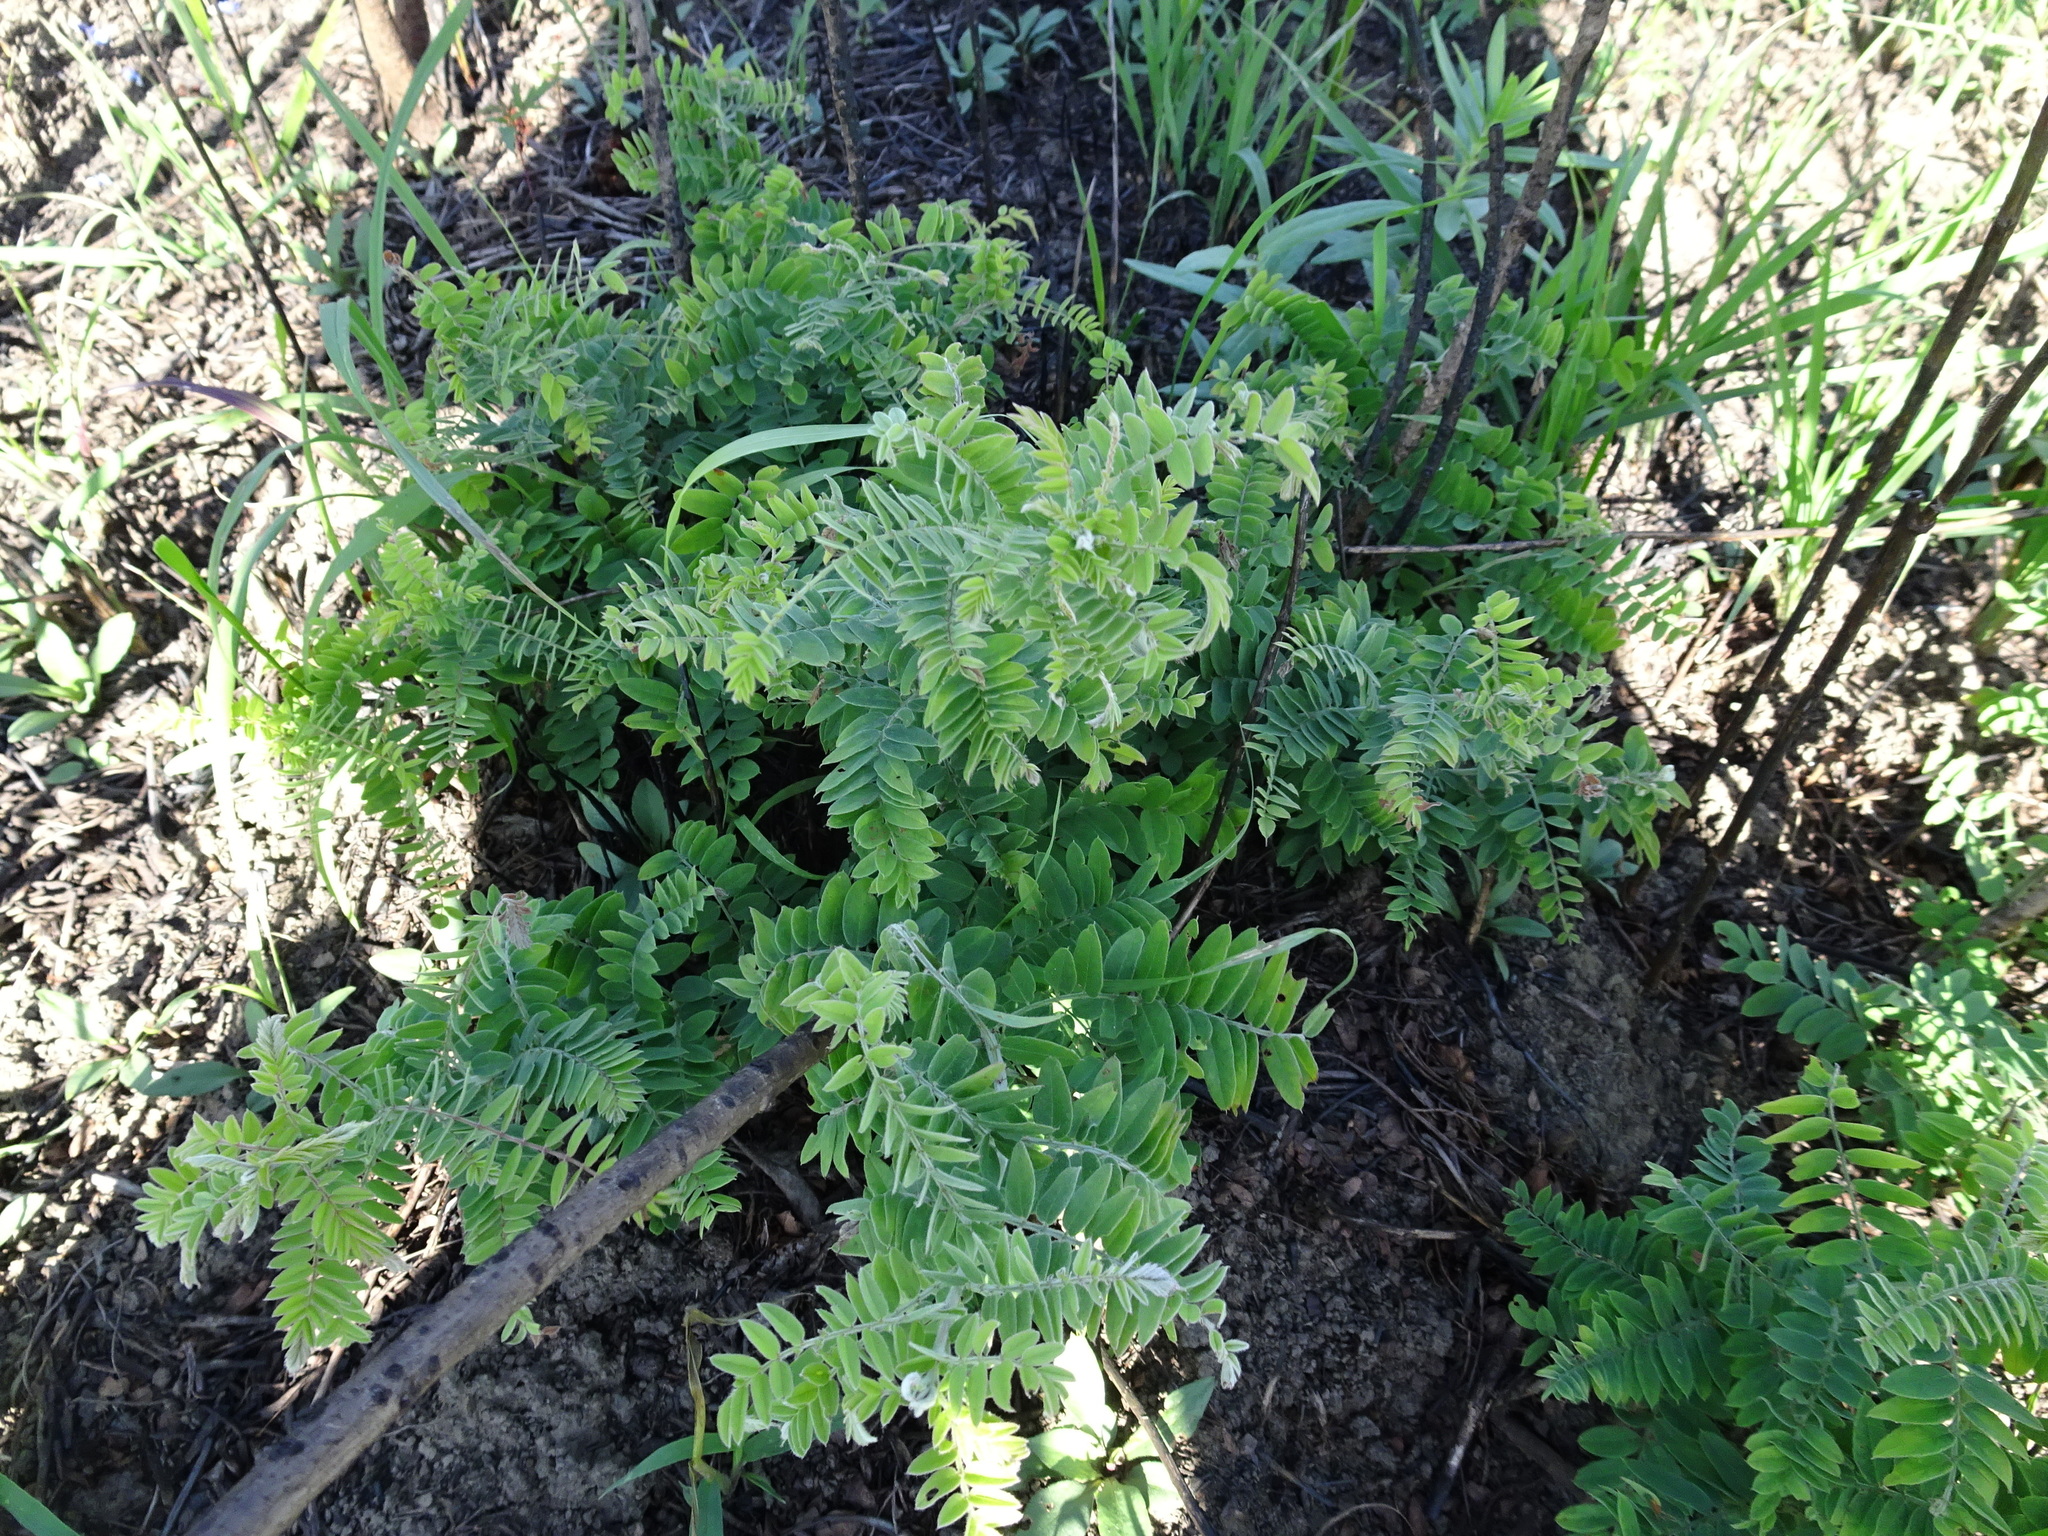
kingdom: Plantae
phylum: Tracheophyta
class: Magnoliopsida
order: Fabales
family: Fabaceae
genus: Amorpha
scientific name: Amorpha canescens
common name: Leadplant
